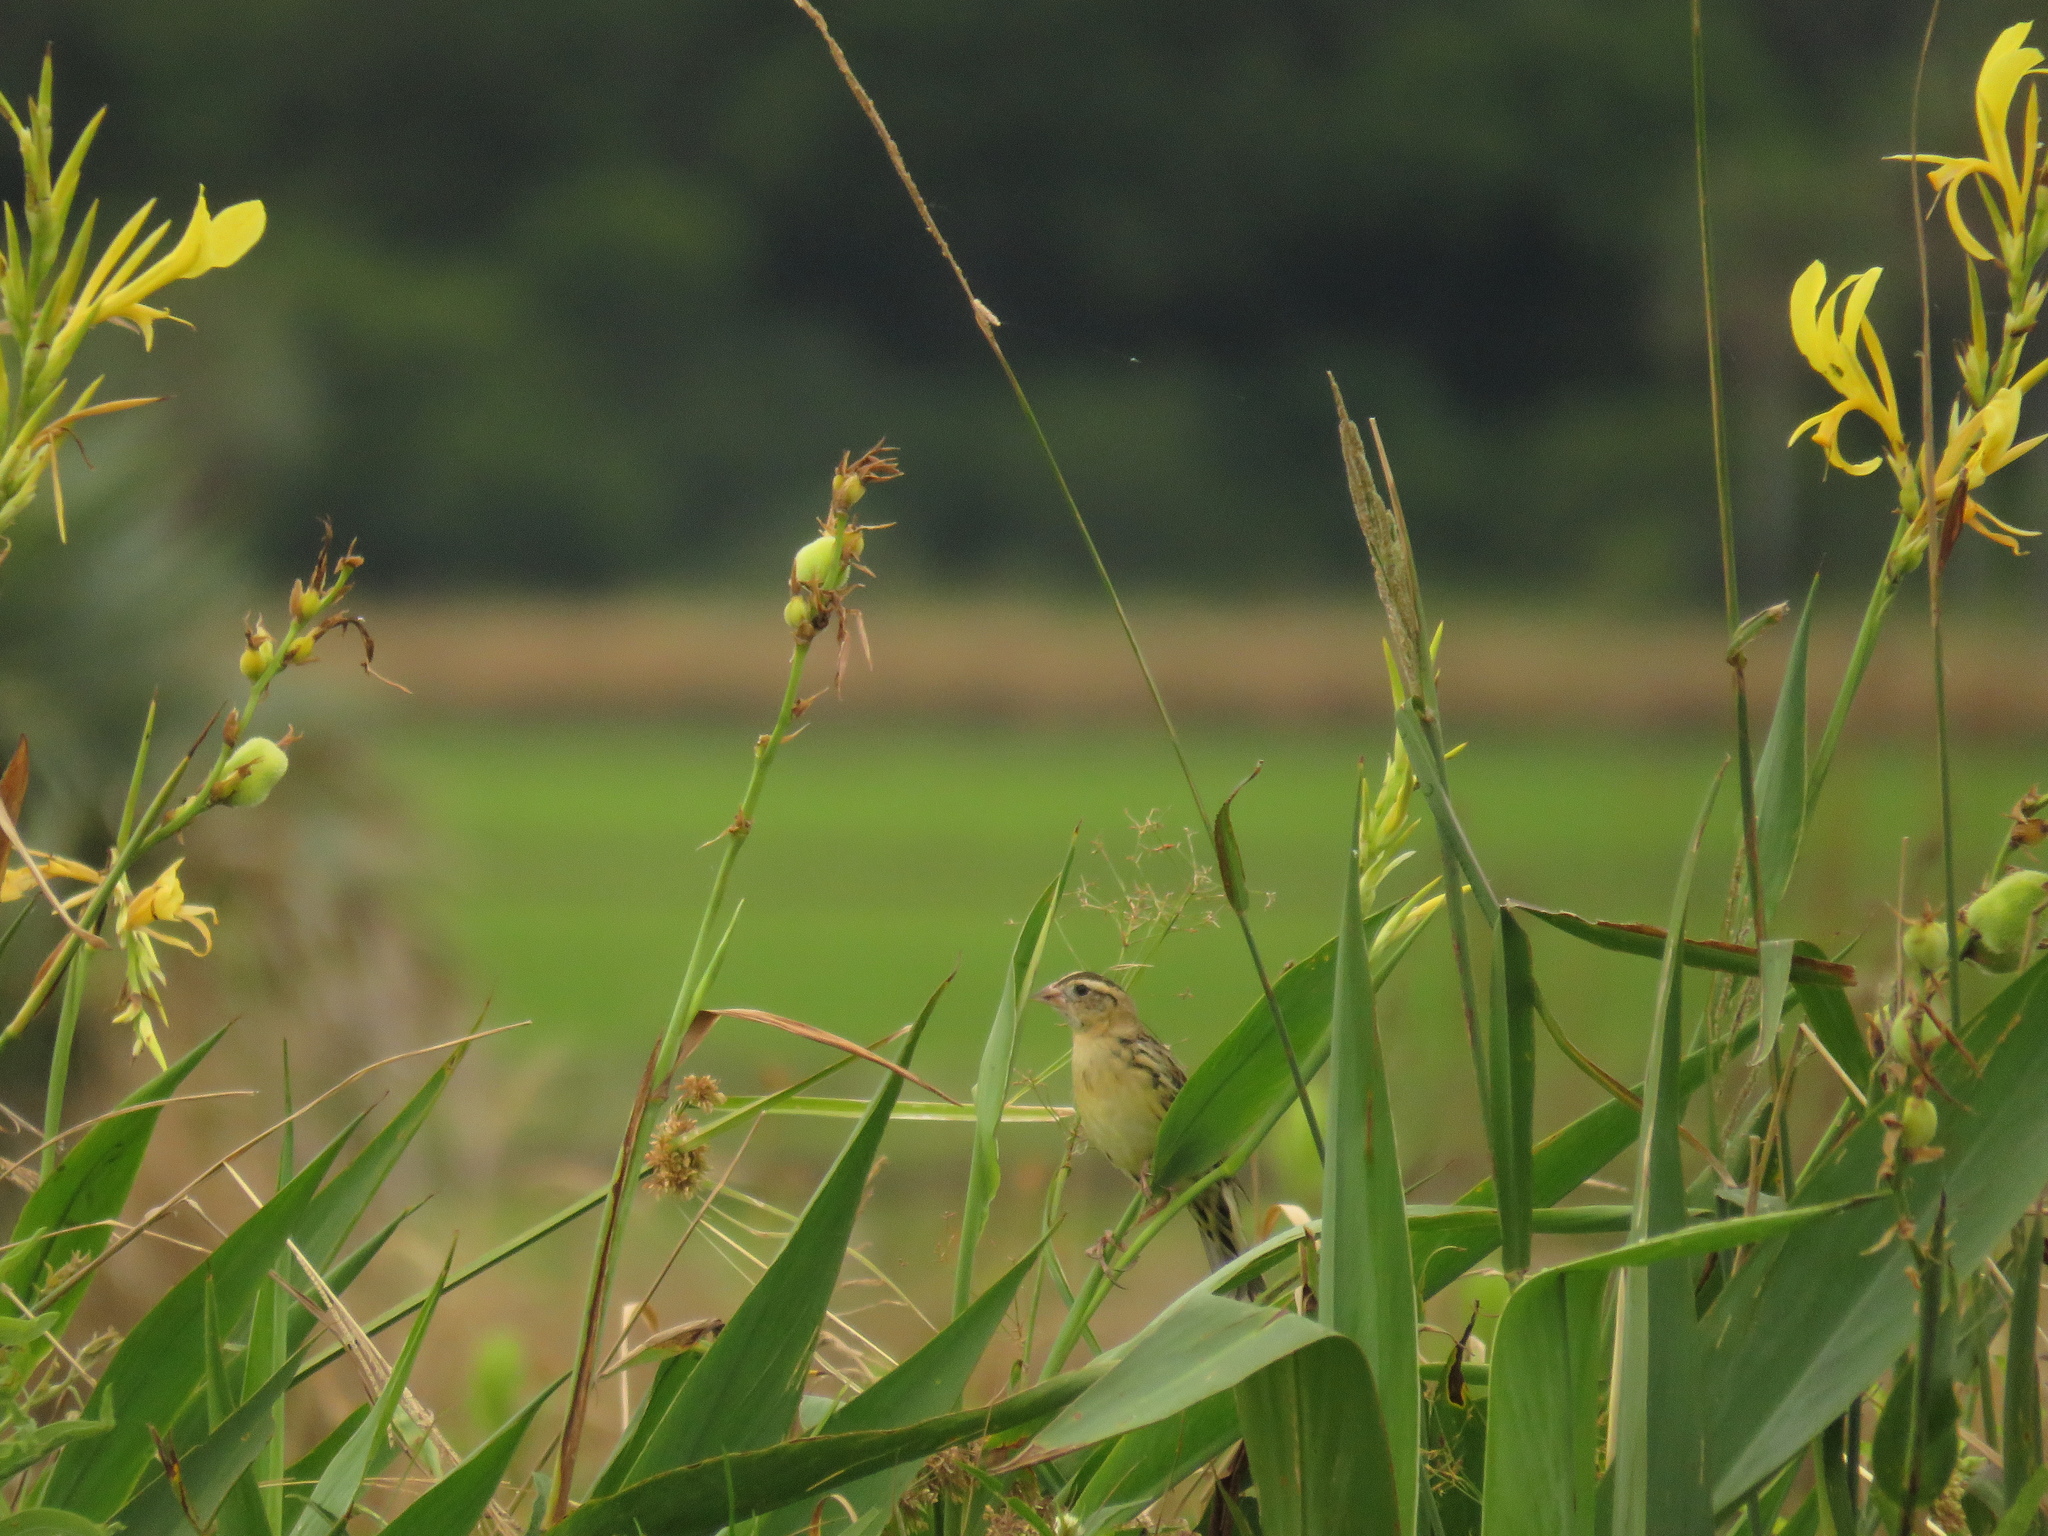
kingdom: Animalia
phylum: Chordata
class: Aves
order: Passeriformes
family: Icteridae
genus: Dolichonyx
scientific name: Dolichonyx oryzivorus
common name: Bobolink
